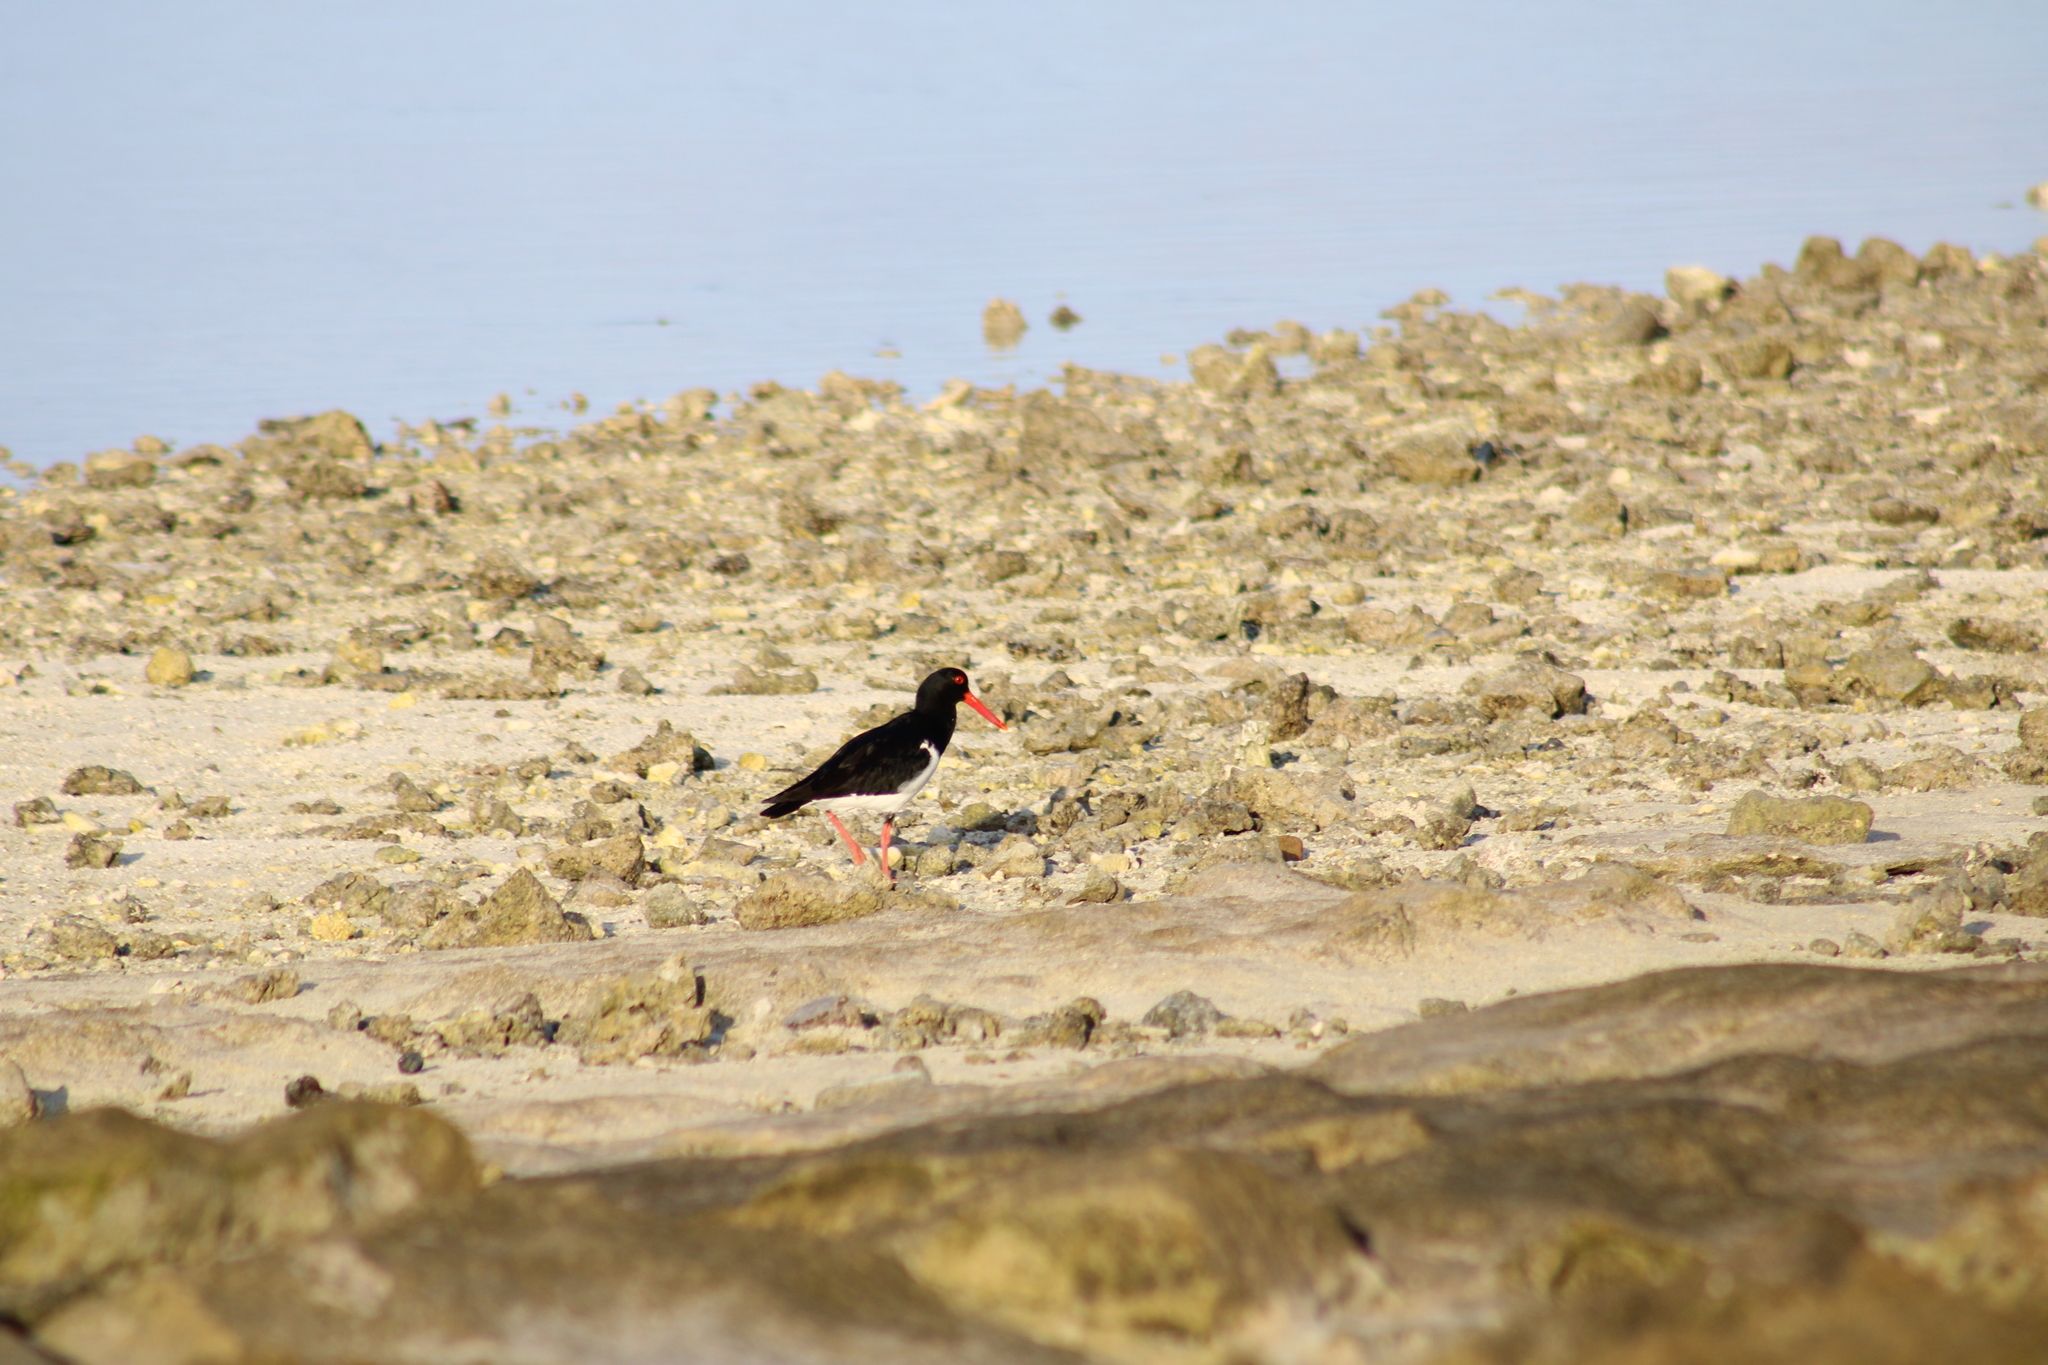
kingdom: Animalia
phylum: Chordata
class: Aves
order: Charadriiformes
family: Haematopodidae
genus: Haematopus
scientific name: Haematopus longirostris
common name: Pied oystercatcher
